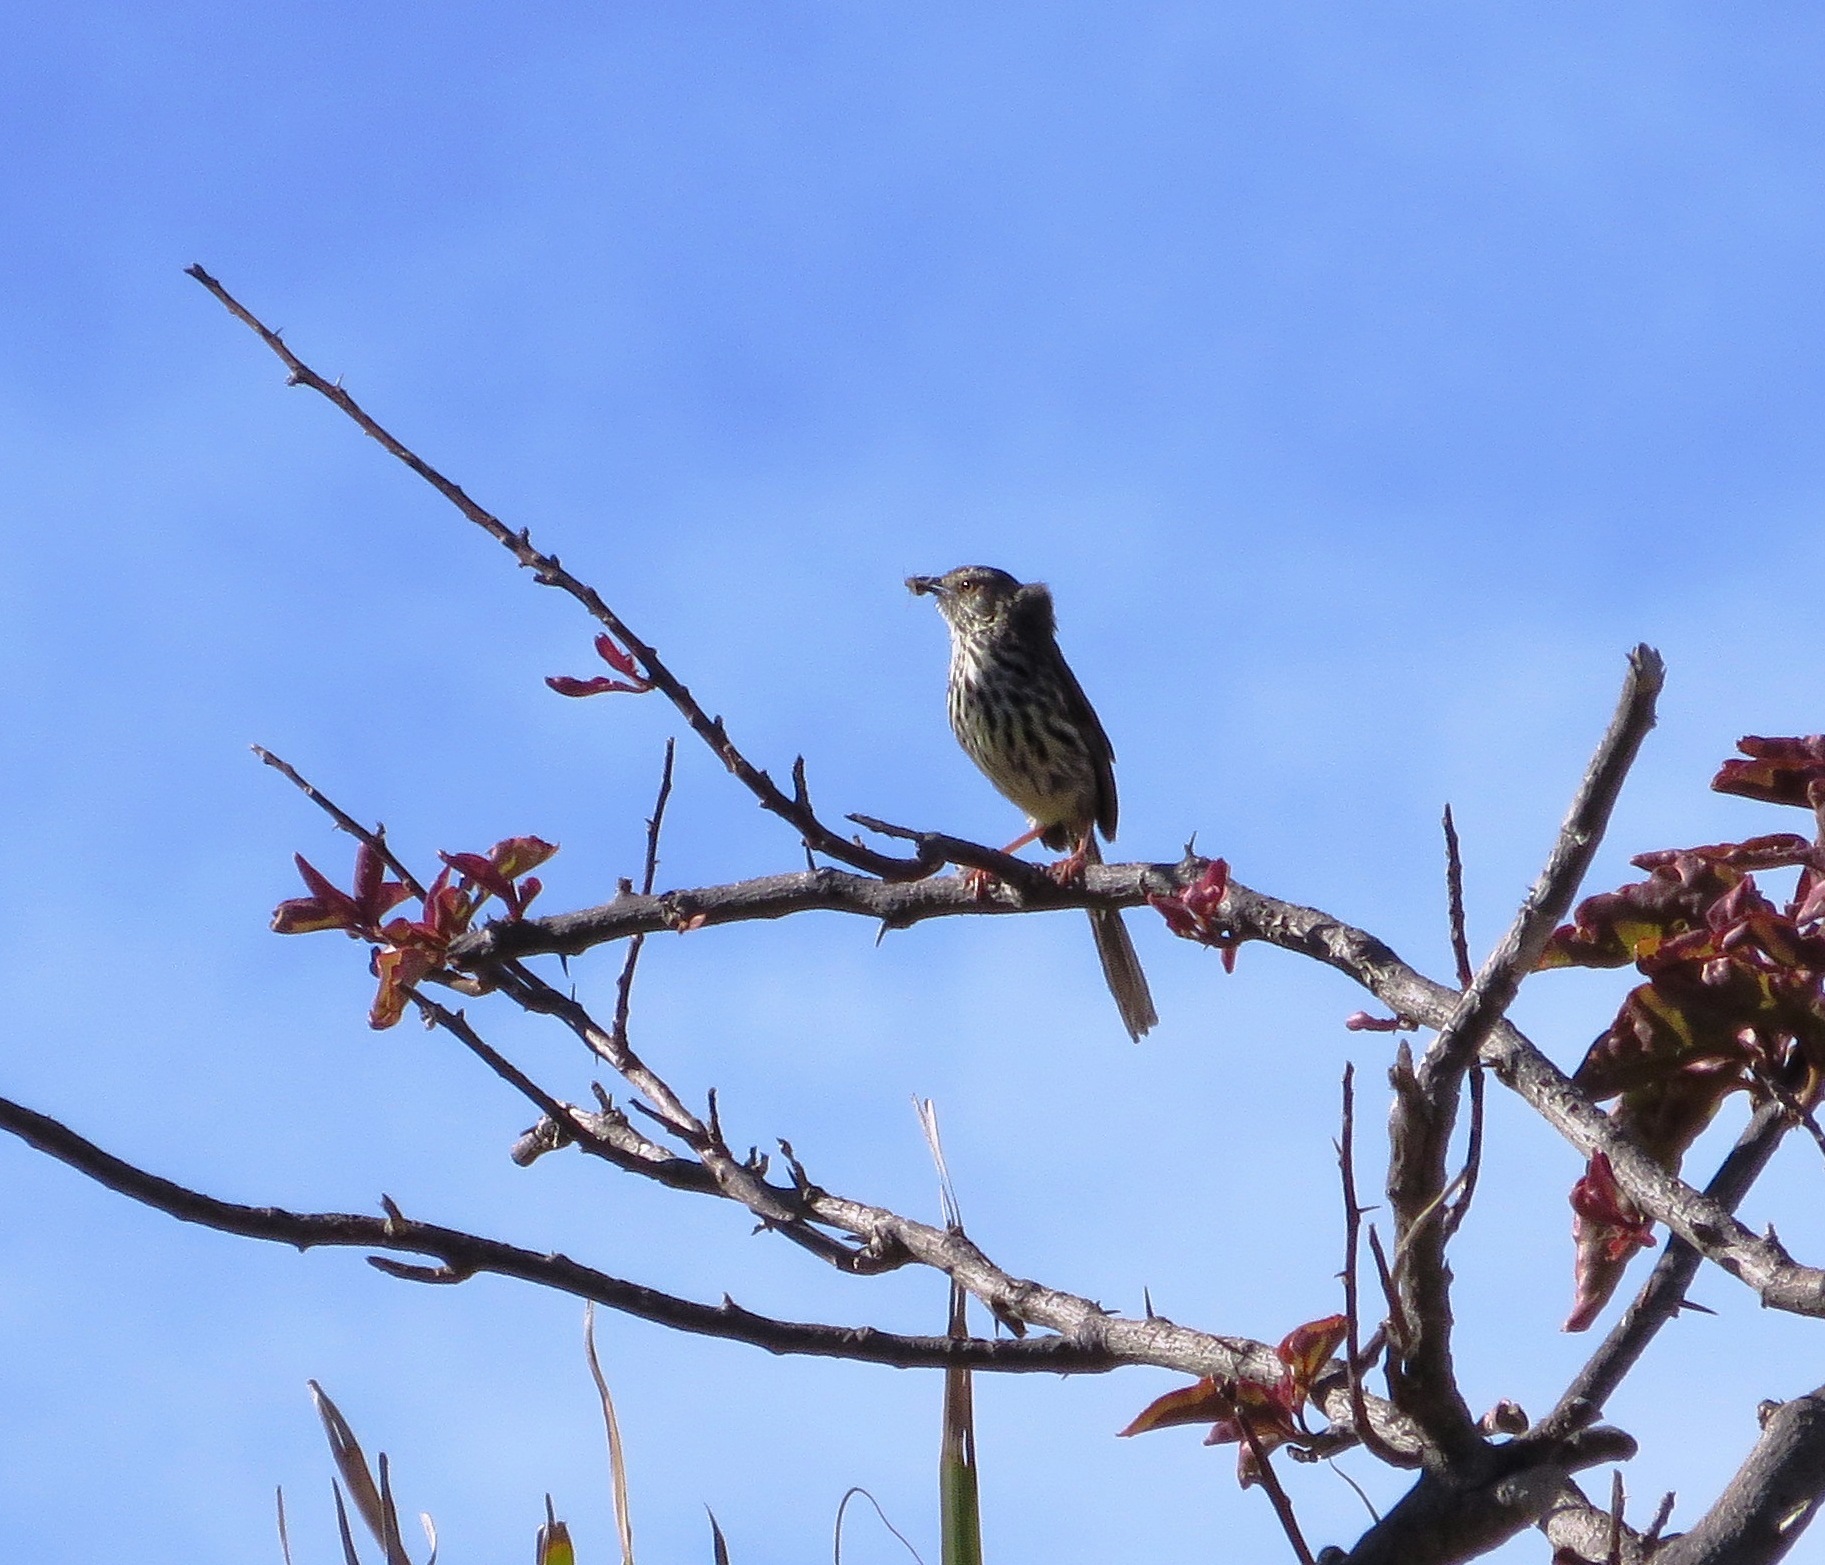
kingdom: Animalia
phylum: Chordata
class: Aves
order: Passeriformes
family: Cisticolidae
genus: Prinia
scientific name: Prinia maculosa
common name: Karoo prinia
